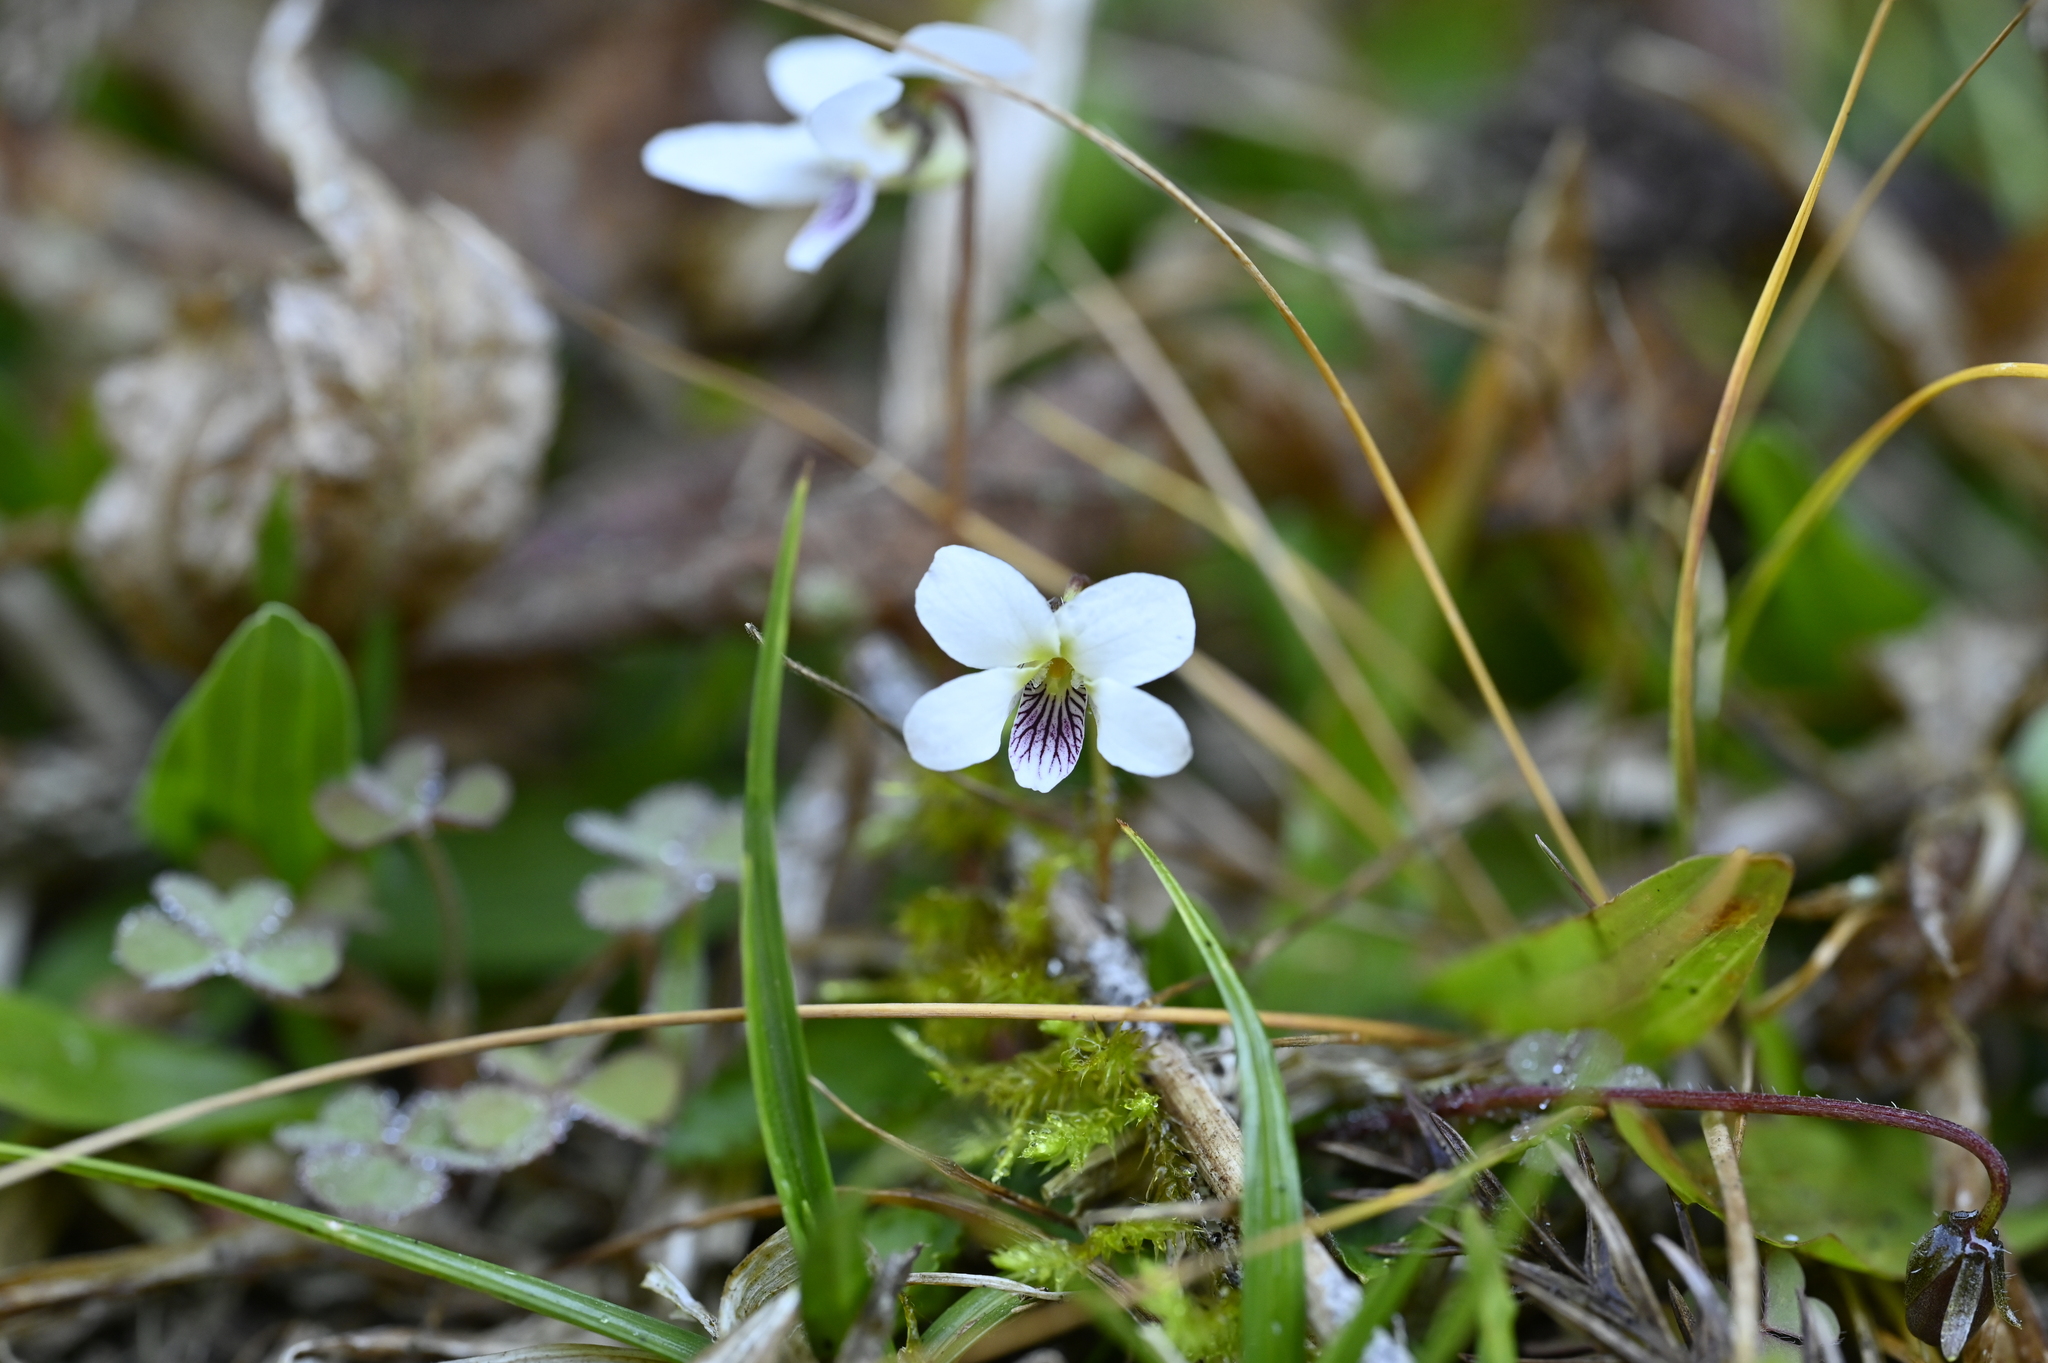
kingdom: Plantae
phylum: Tracheophyta
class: Magnoliopsida
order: Malpighiales
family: Violaceae
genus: Viola
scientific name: Viola adenothrix
